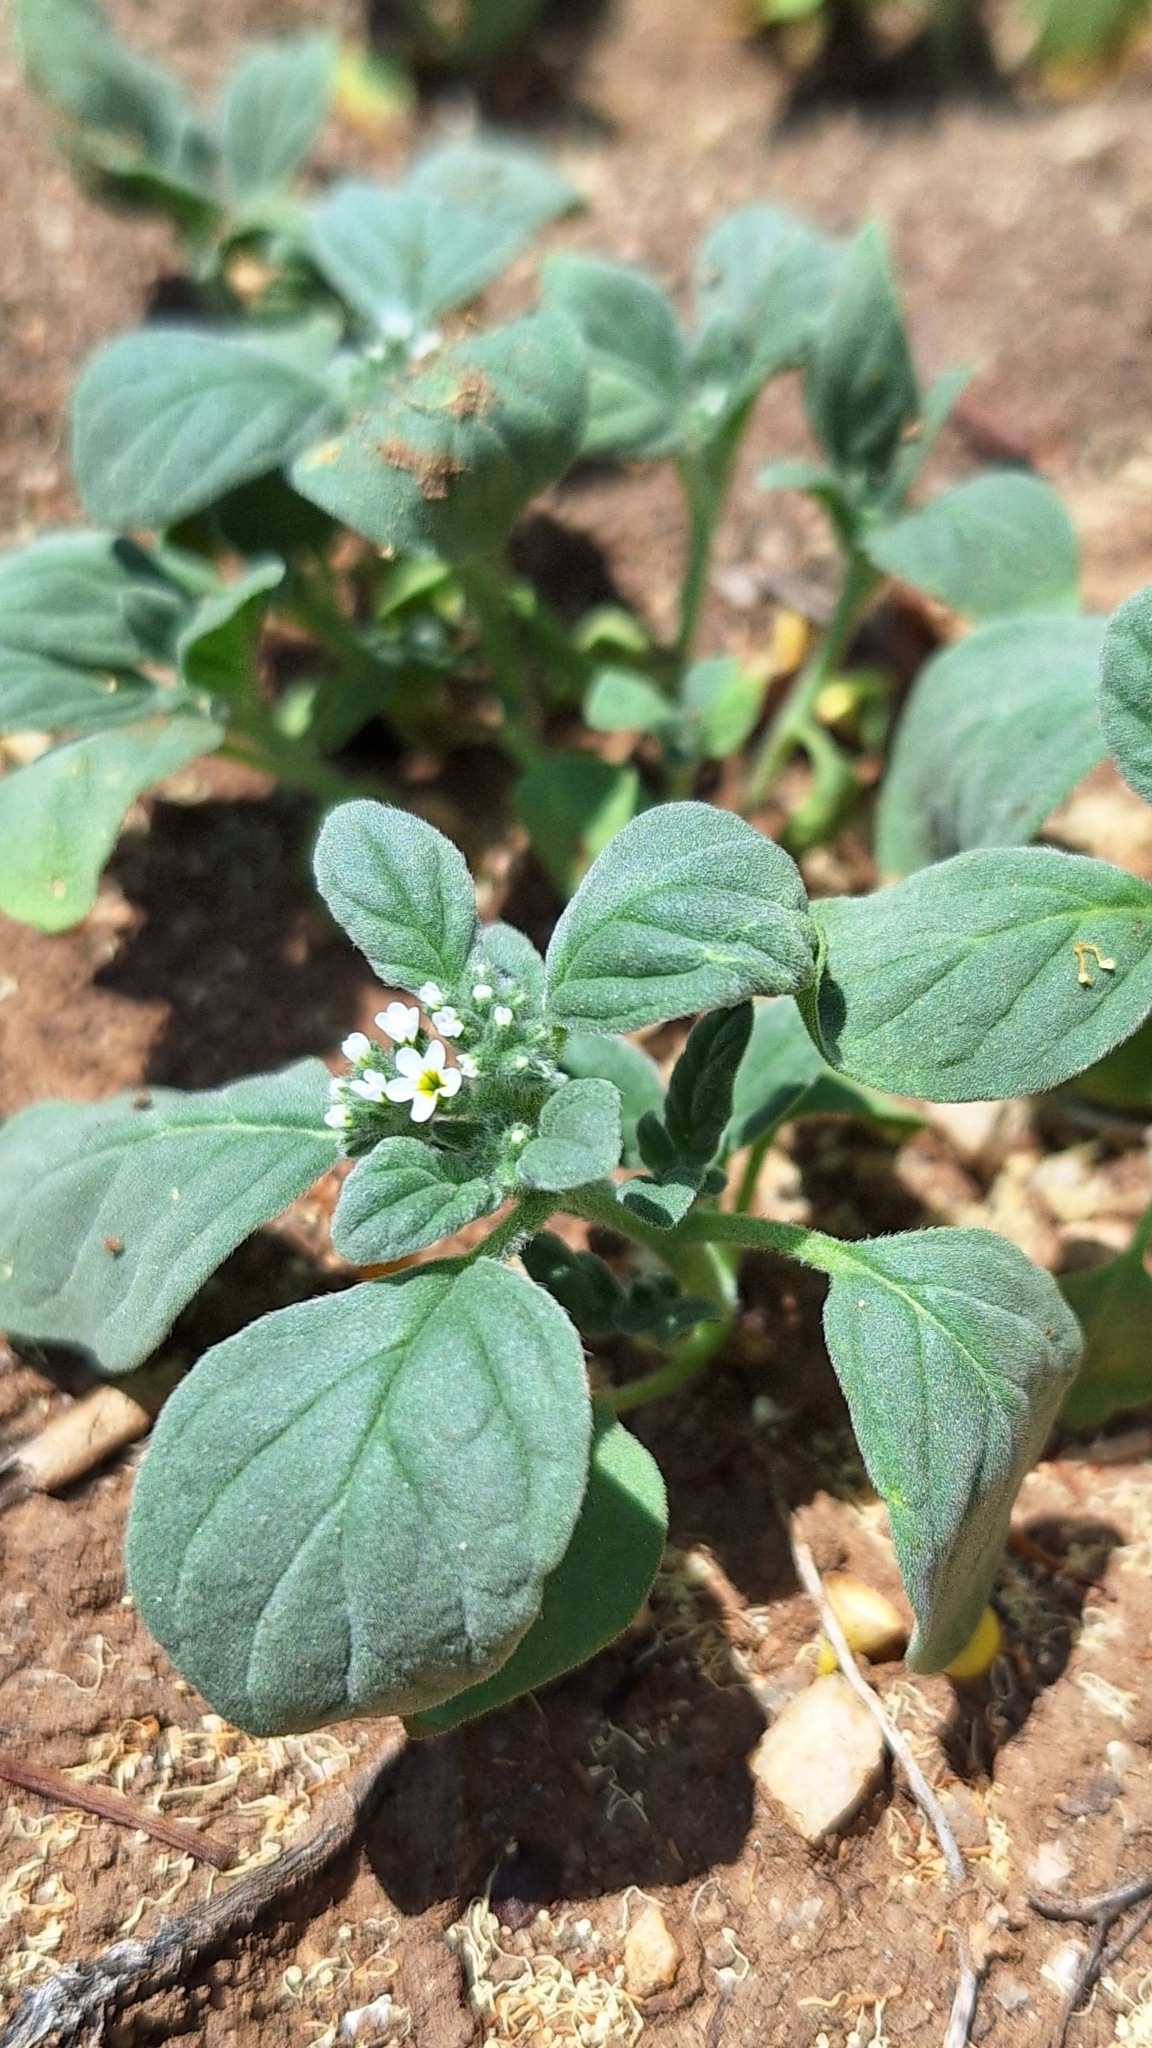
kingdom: Plantae
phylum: Tracheophyta
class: Magnoliopsida
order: Boraginales
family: Heliotropiaceae
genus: Heliotropium
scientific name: Heliotropium europaeum
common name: European heliotrope
